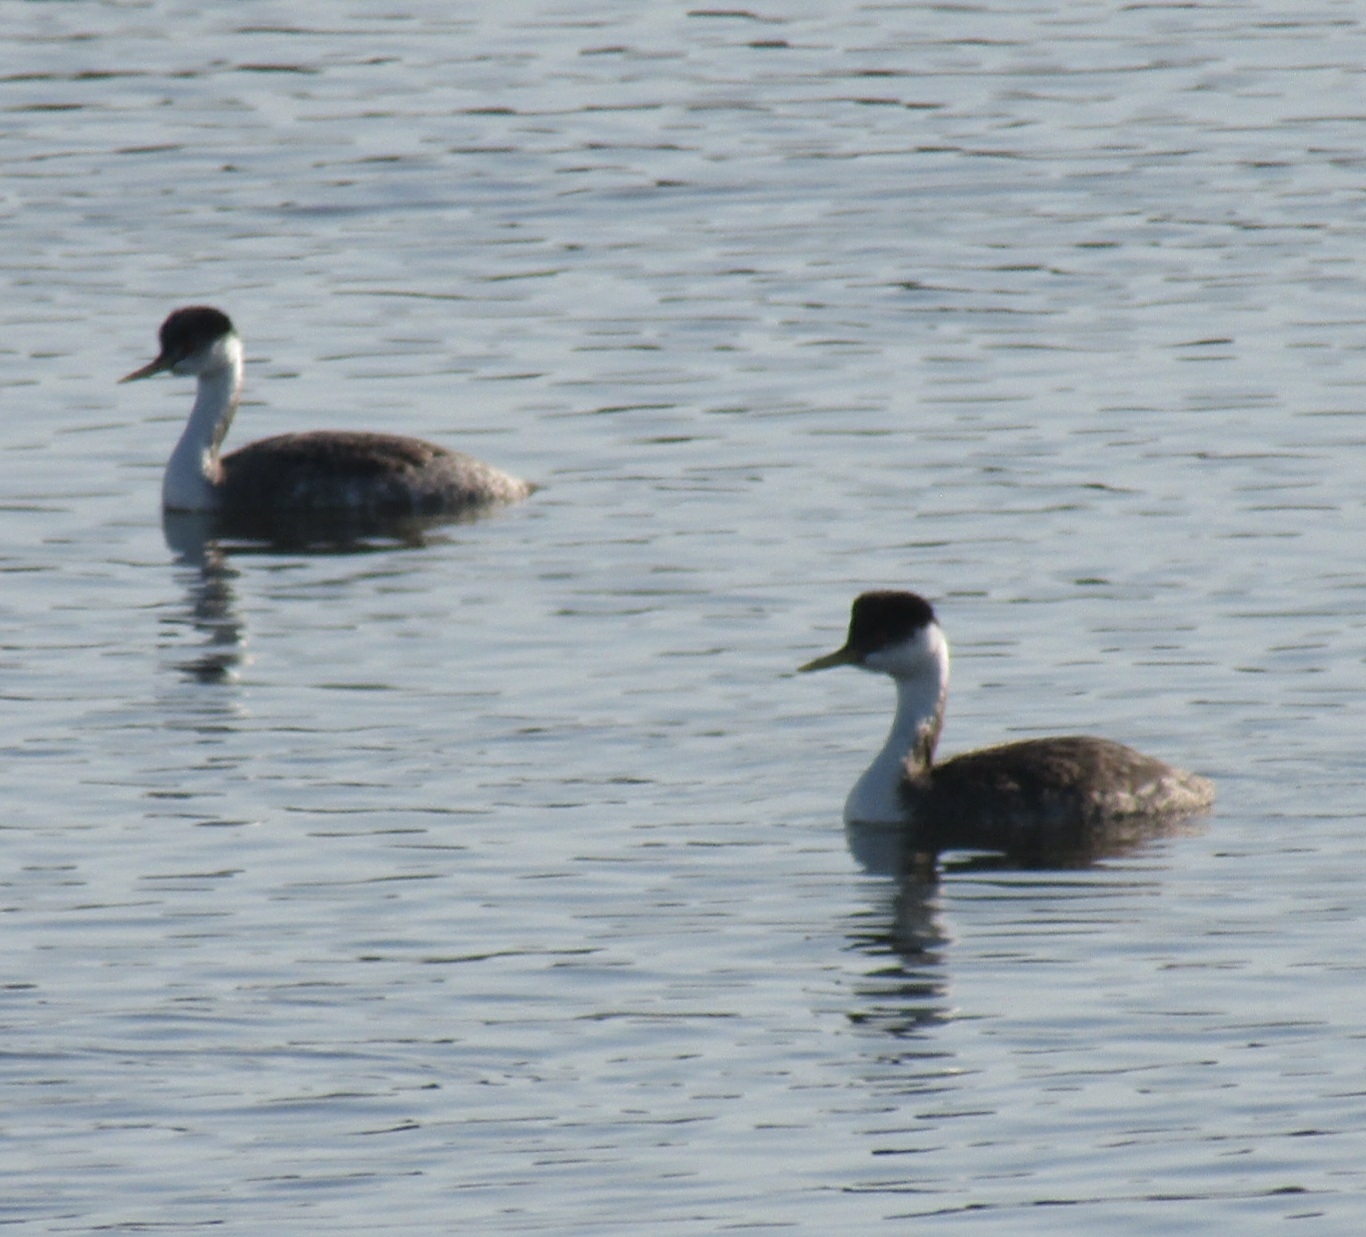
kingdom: Animalia
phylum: Chordata
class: Aves
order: Podicipediformes
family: Podicipedidae
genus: Aechmophorus
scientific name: Aechmophorus occidentalis
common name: Western grebe
